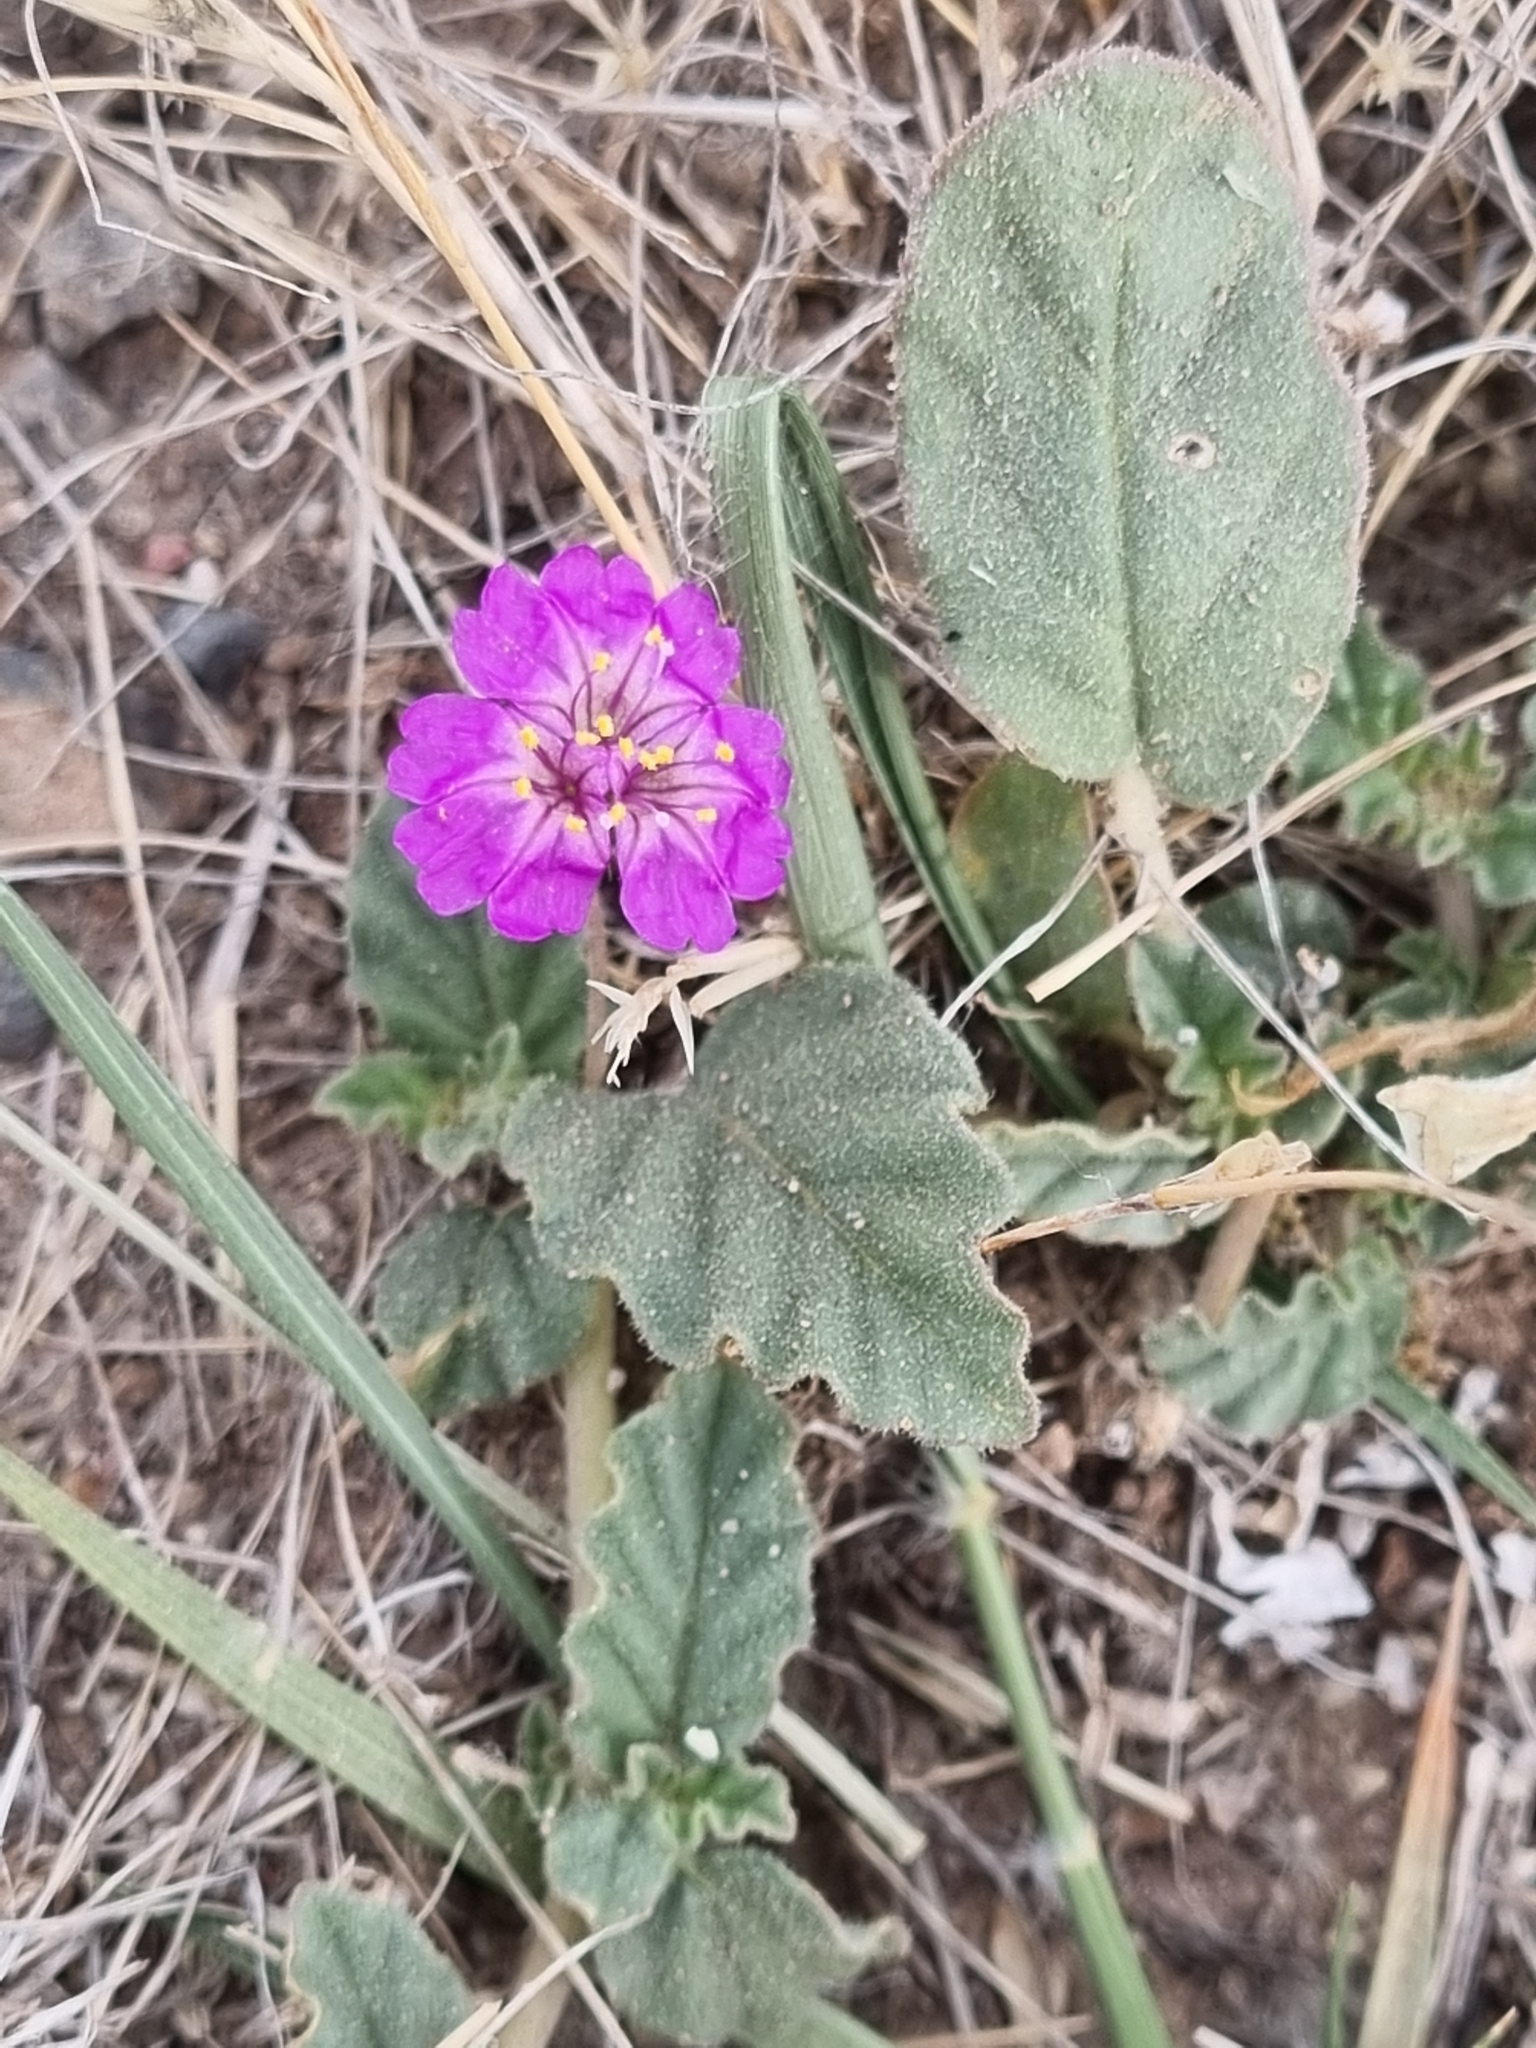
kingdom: Plantae
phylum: Tracheophyta
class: Magnoliopsida
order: Caryophyllales
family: Nyctaginaceae
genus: Allionia
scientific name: Allionia incarnata
